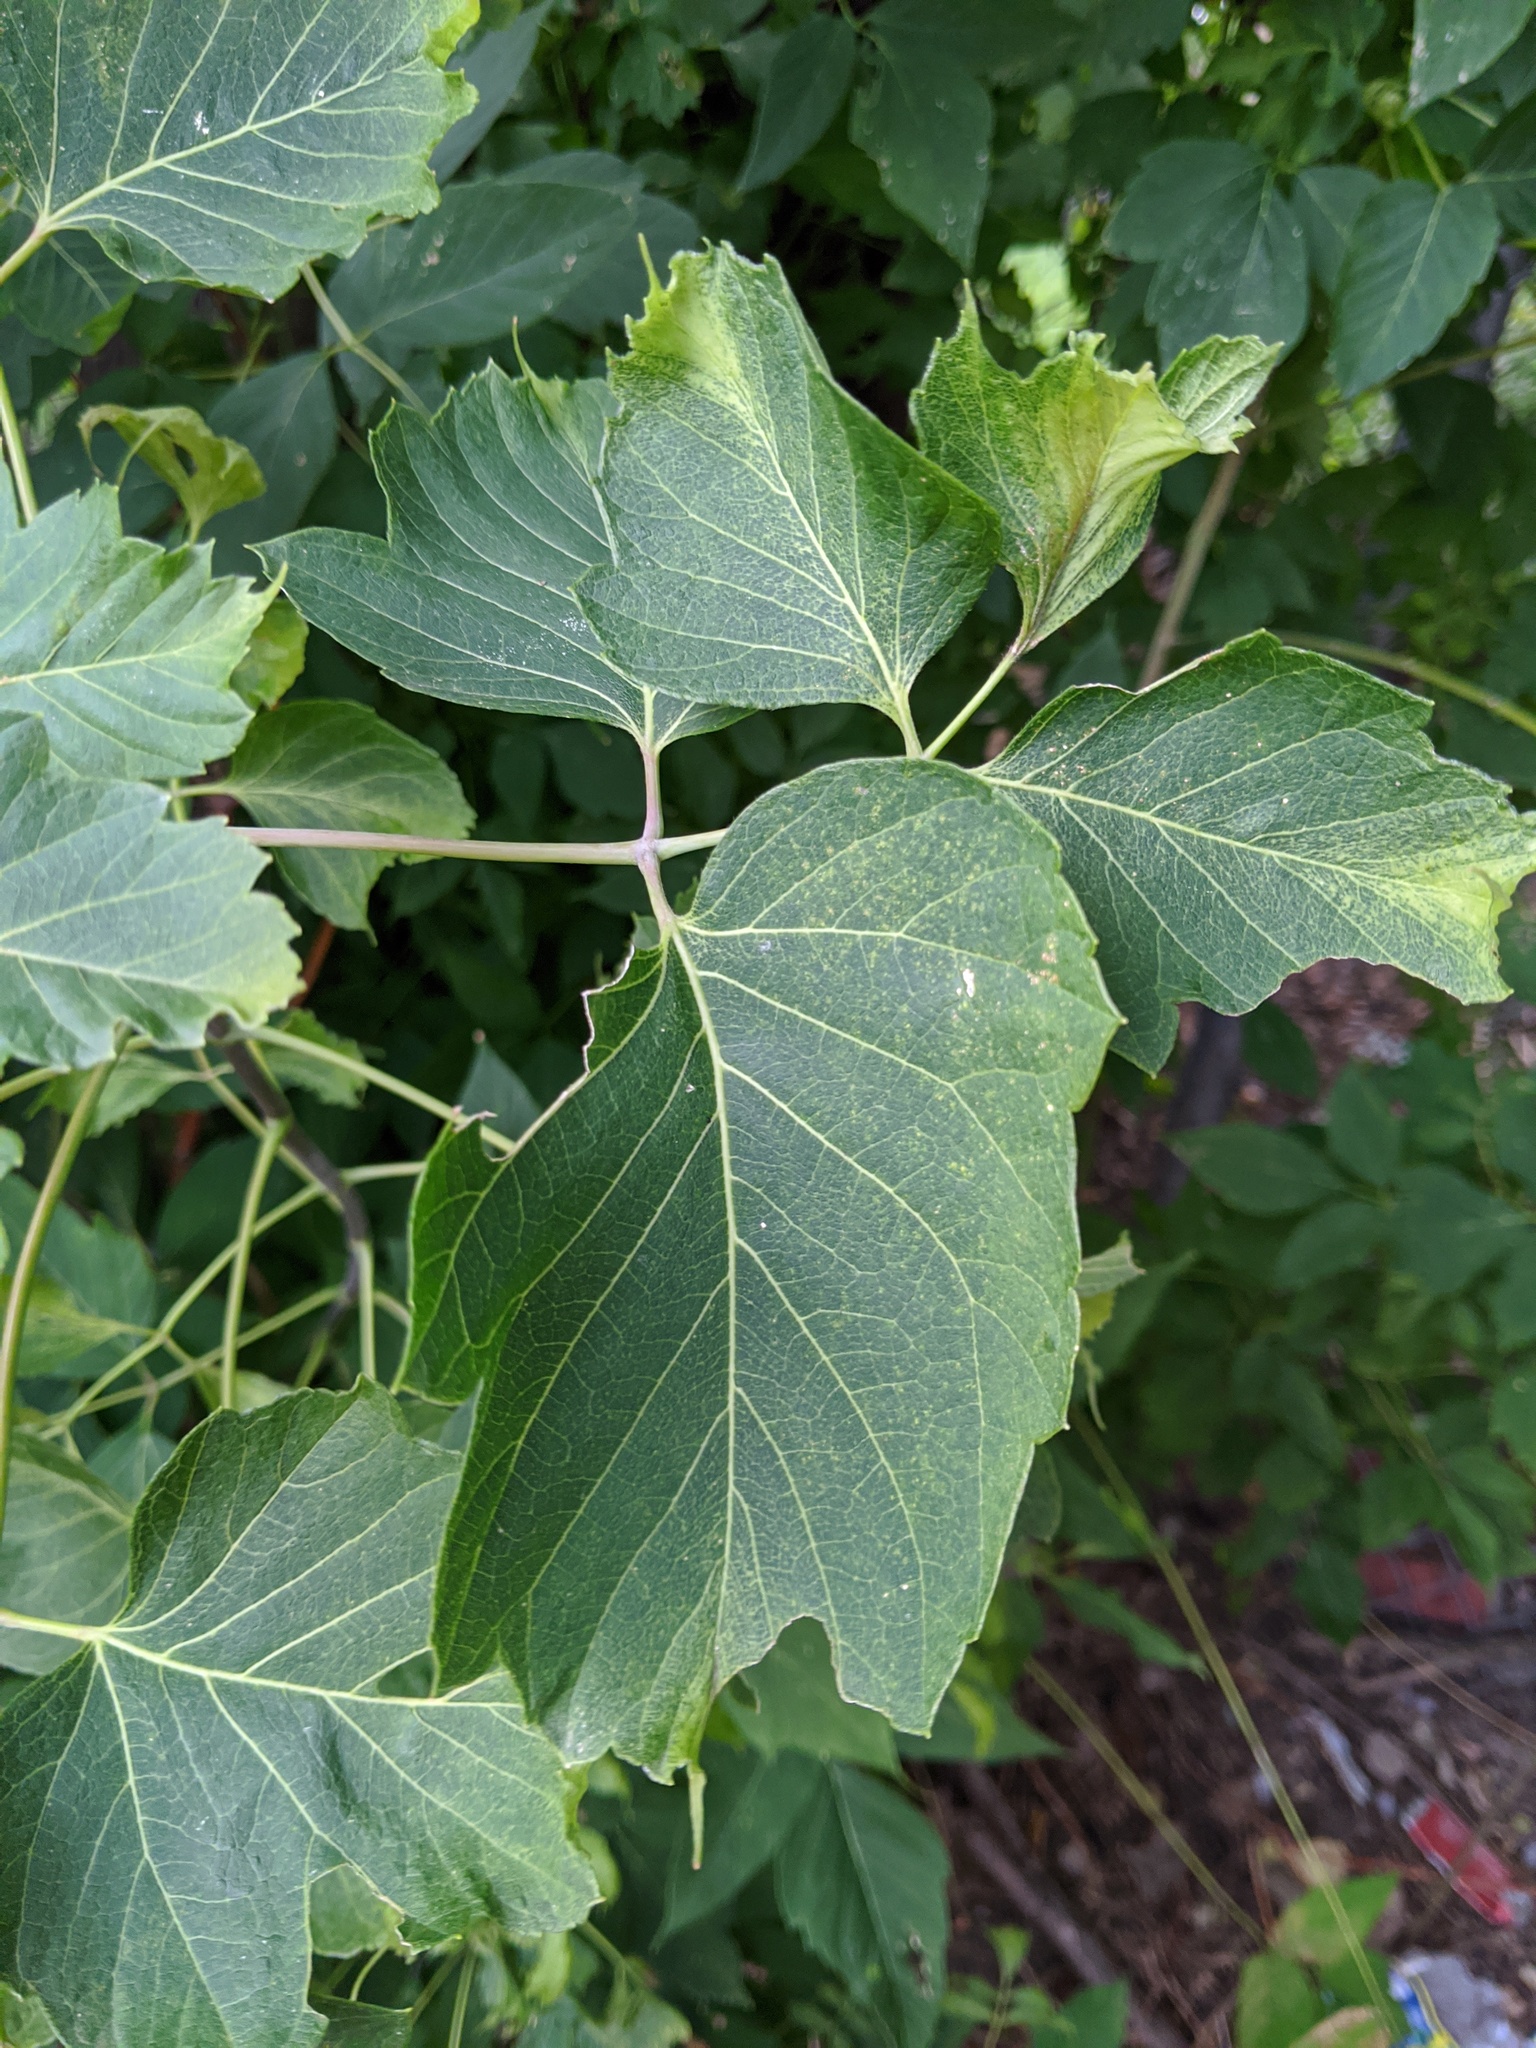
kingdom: Plantae
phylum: Tracheophyta
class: Magnoliopsida
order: Sapindales
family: Sapindaceae
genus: Acer
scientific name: Acer negundo
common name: Ashleaf maple
